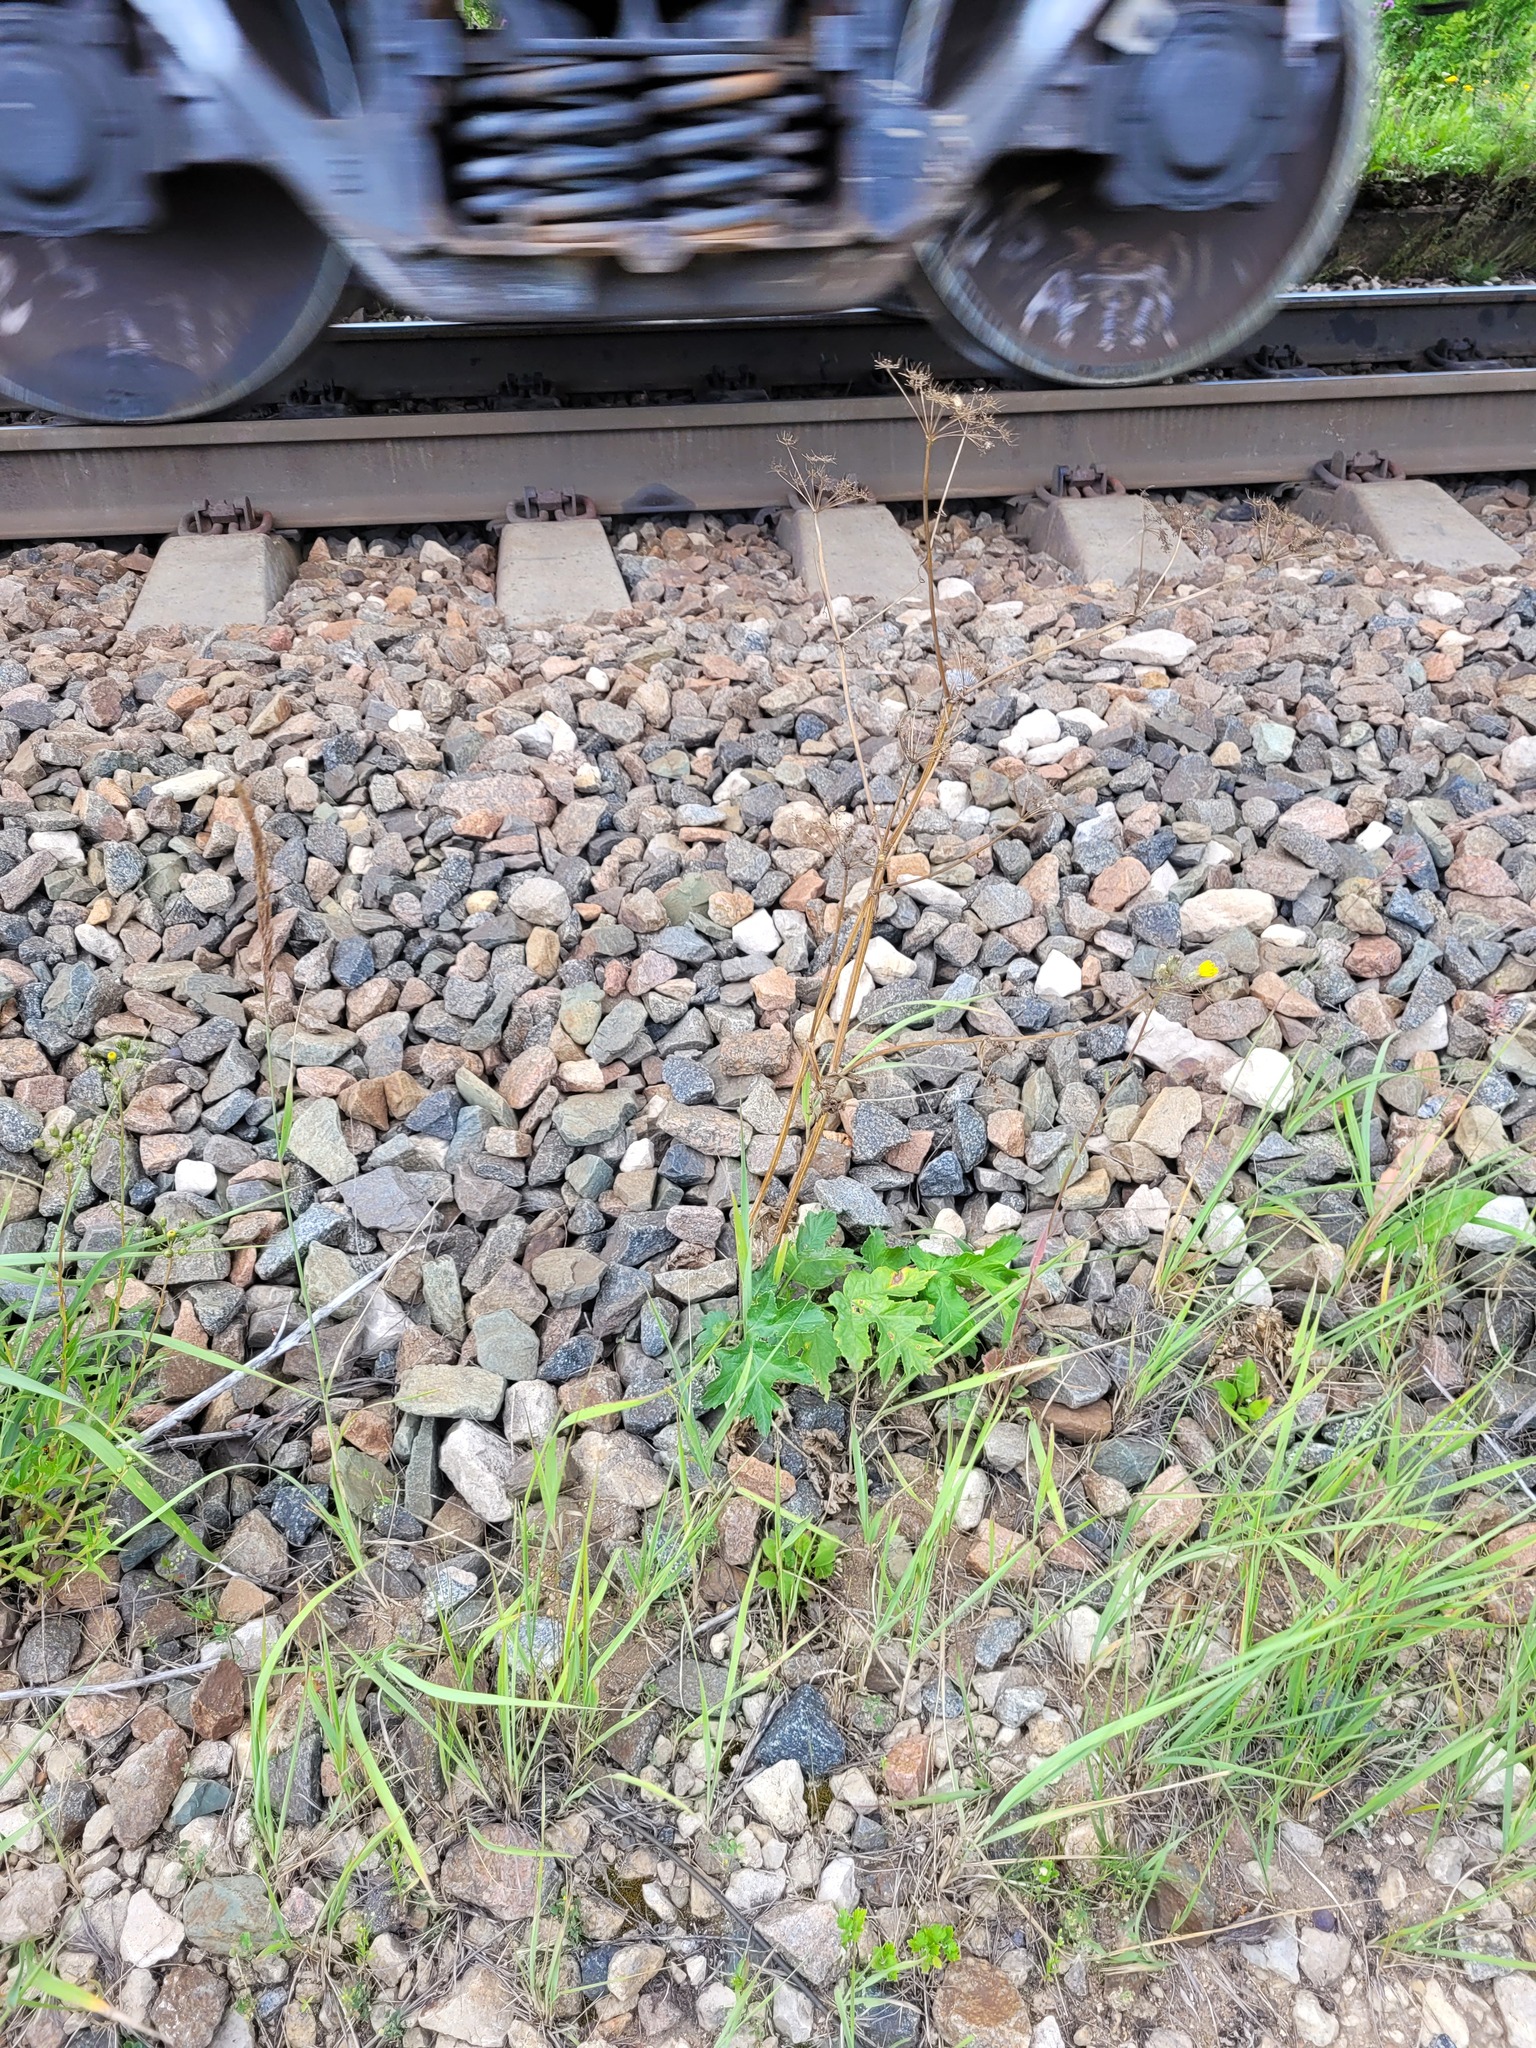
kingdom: Plantae
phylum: Tracheophyta
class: Magnoliopsida
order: Apiales
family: Apiaceae
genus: Heracleum
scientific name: Heracleum sphondylium
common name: Hogweed
